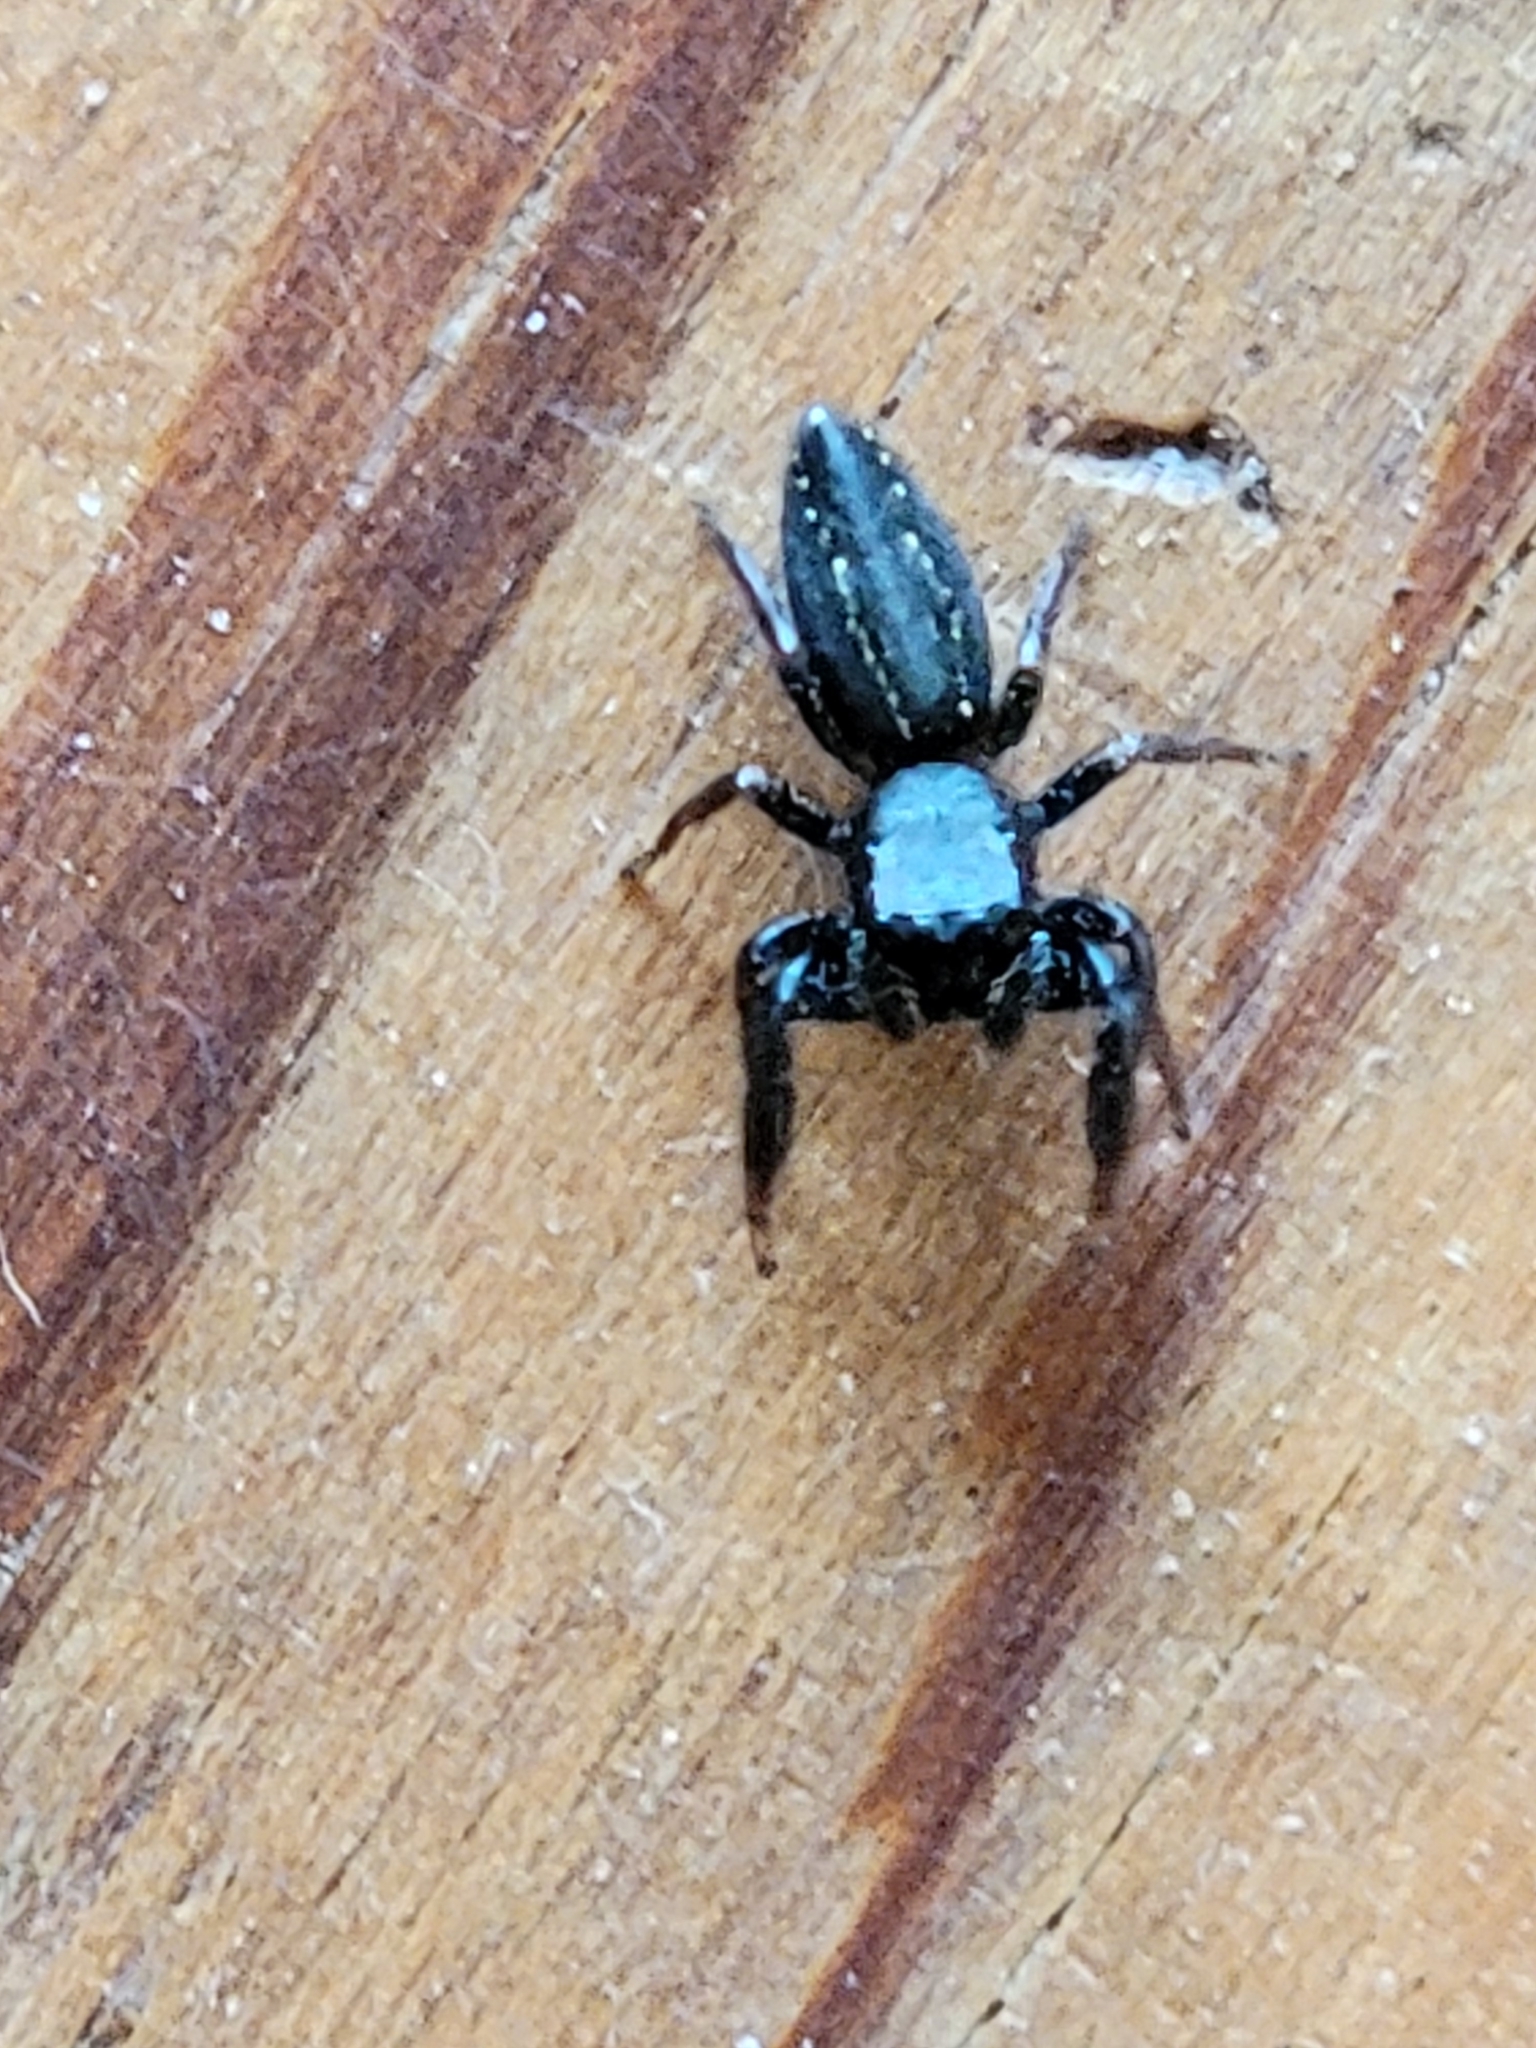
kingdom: Animalia
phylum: Arthropoda
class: Arachnida
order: Araneae
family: Salticidae
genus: Metacyrba
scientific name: Metacyrba taeniola
